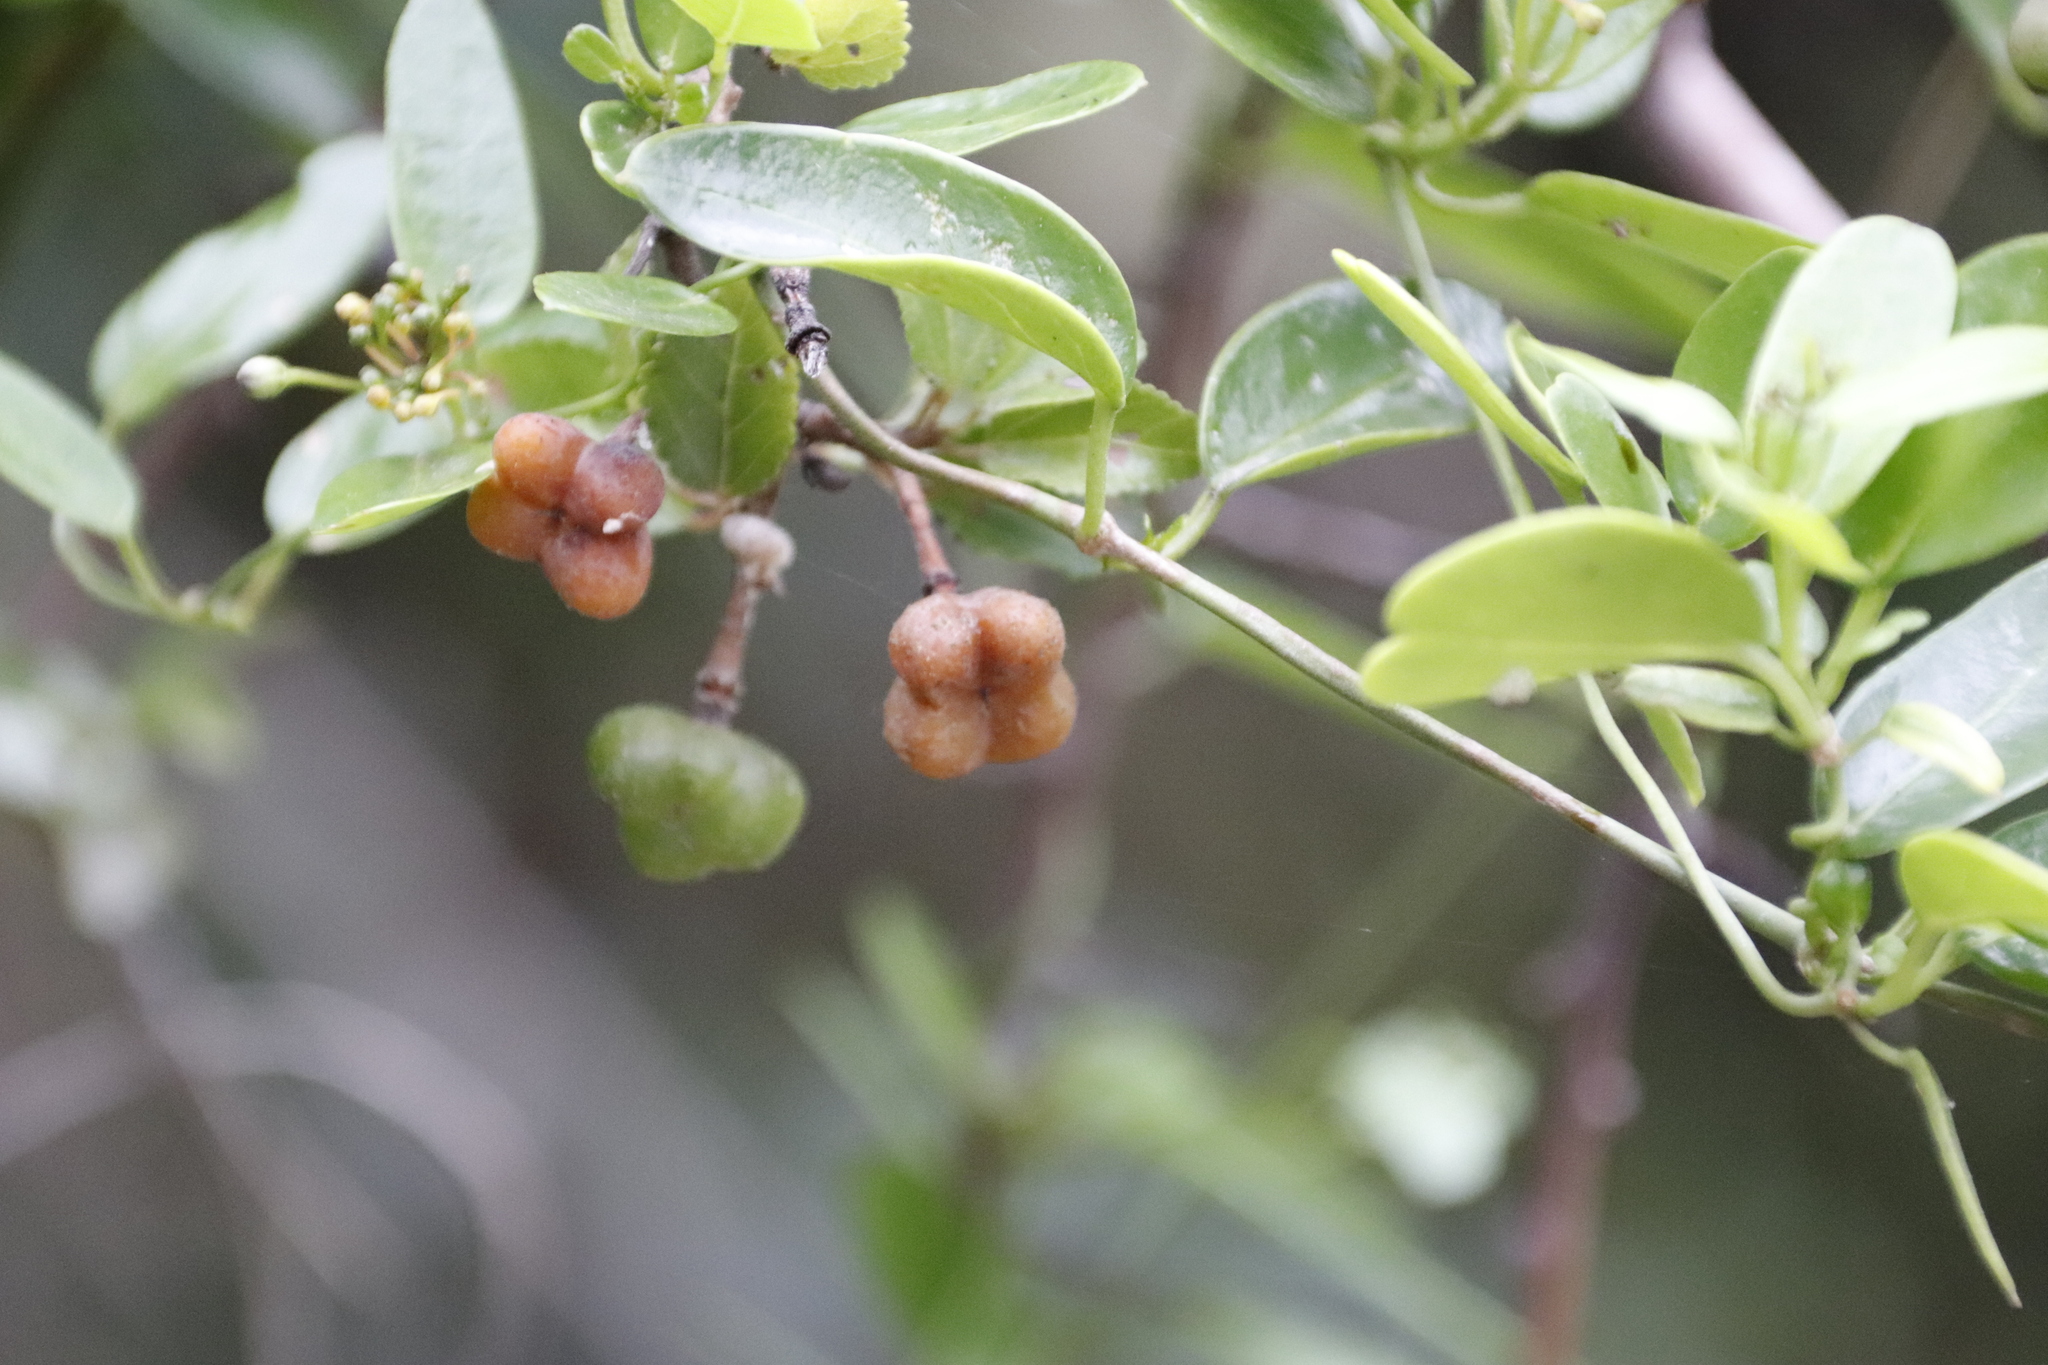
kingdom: Plantae
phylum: Tracheophyta
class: Magnoliopsida
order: Malvales
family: Malvaceae
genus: Grewia
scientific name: Grewia occidentalis
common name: Crossberry
